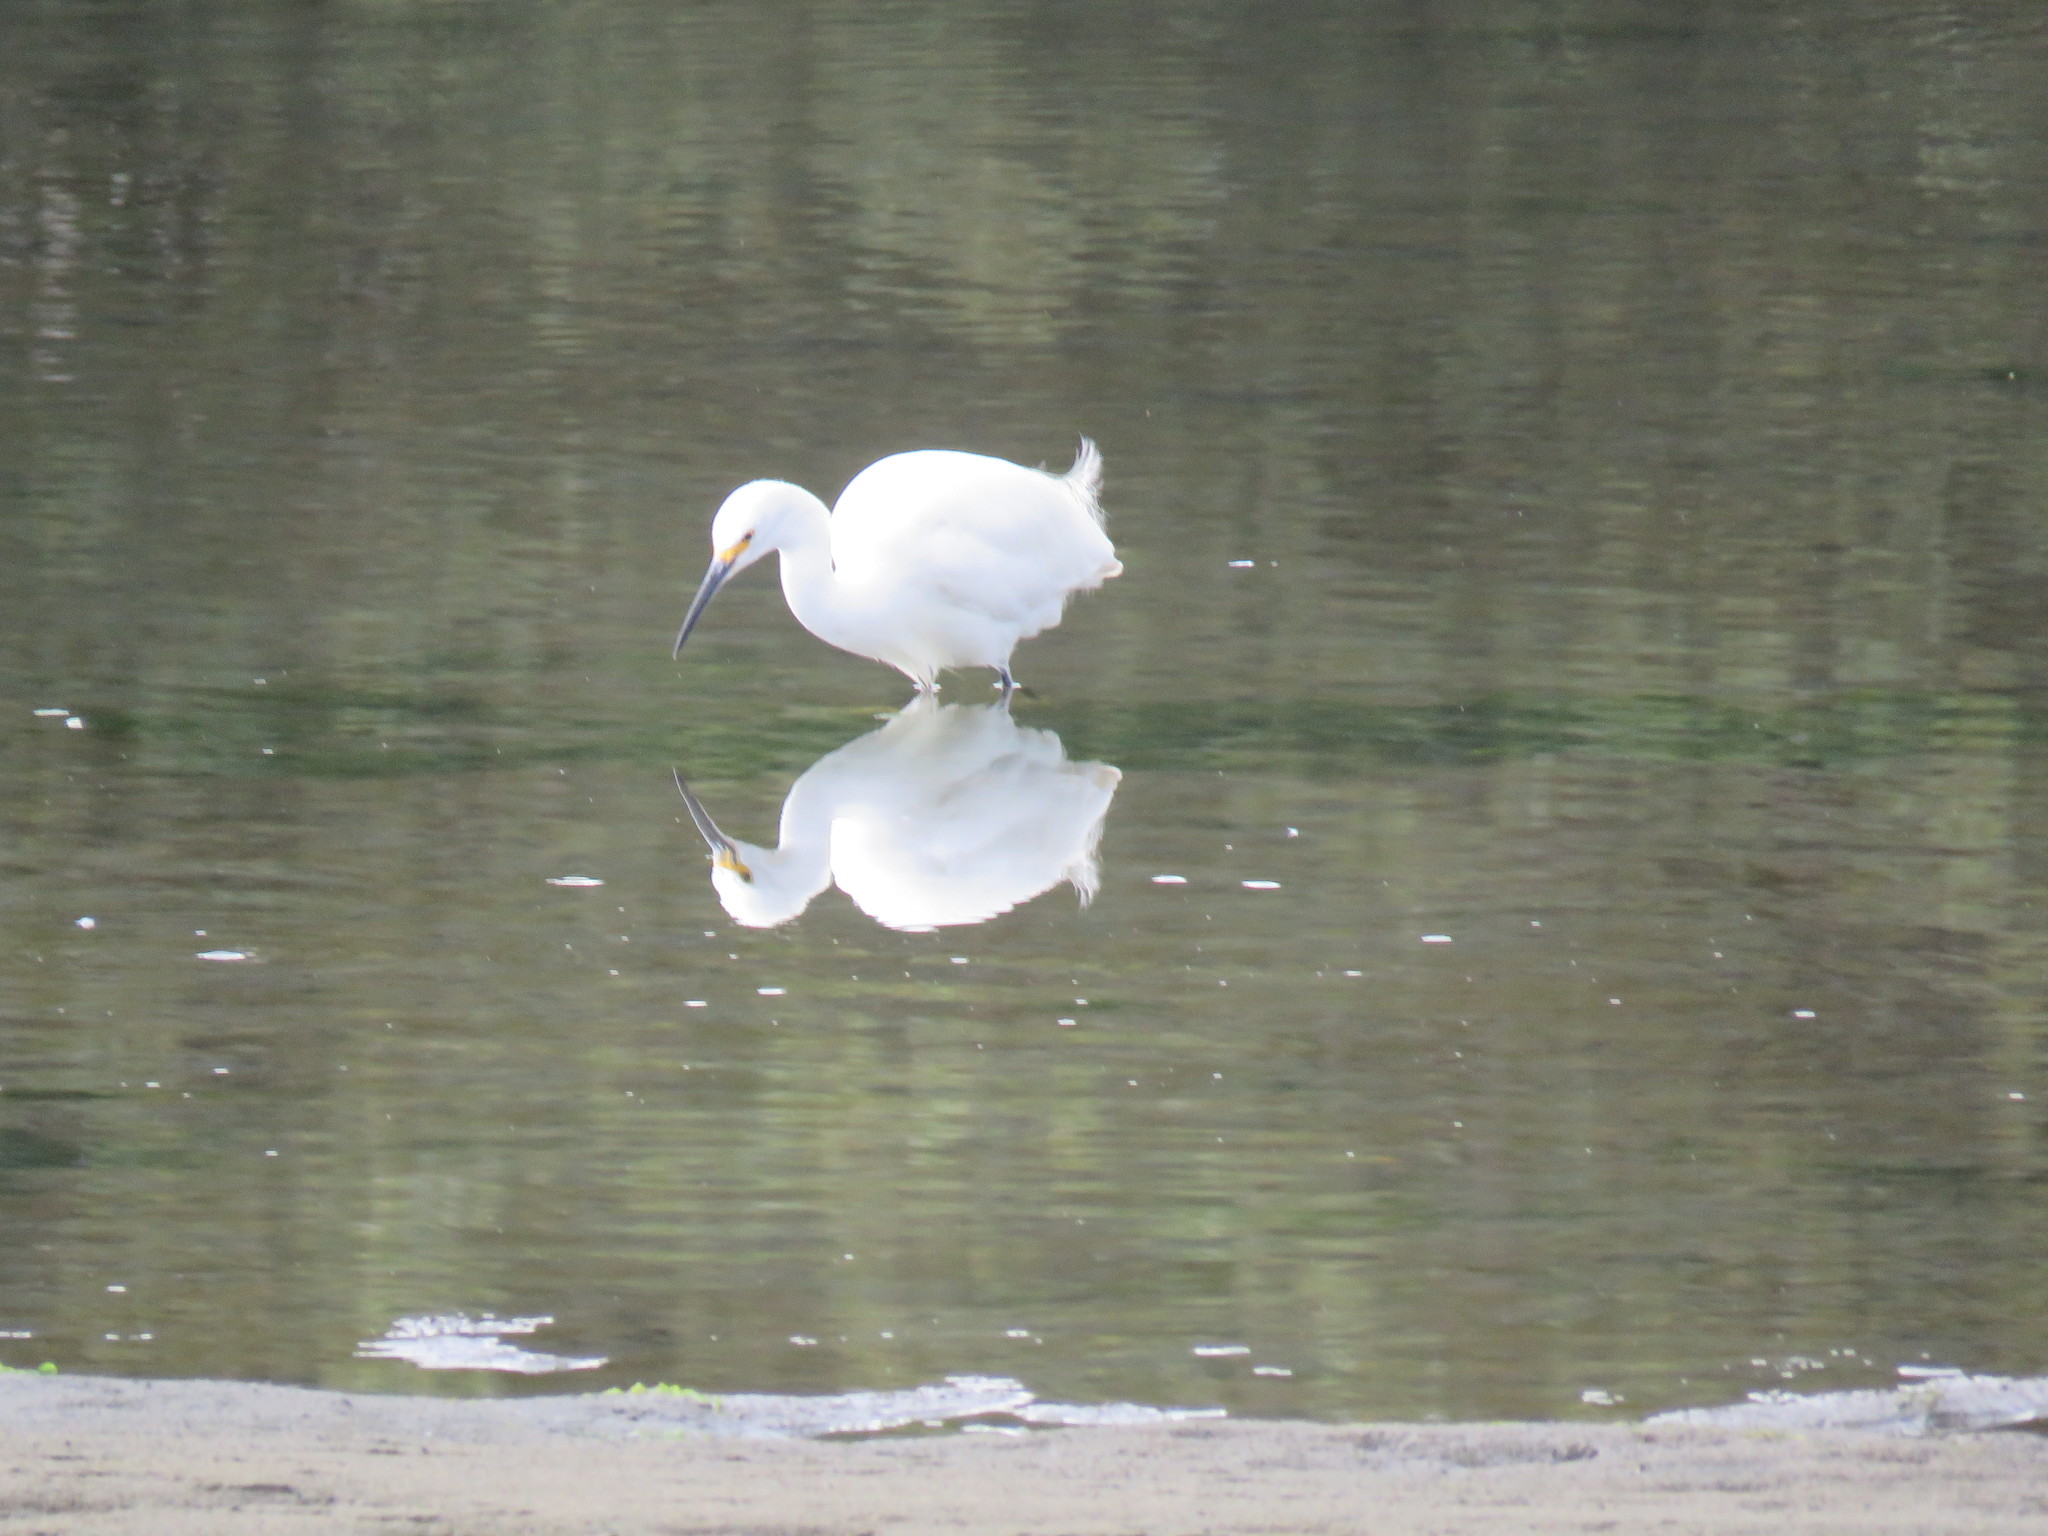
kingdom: Animalia
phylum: Chordata
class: Aves
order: Pelecaniformes
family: Ardeidae
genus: Egretta
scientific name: Egretta thula
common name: Snowy egret
